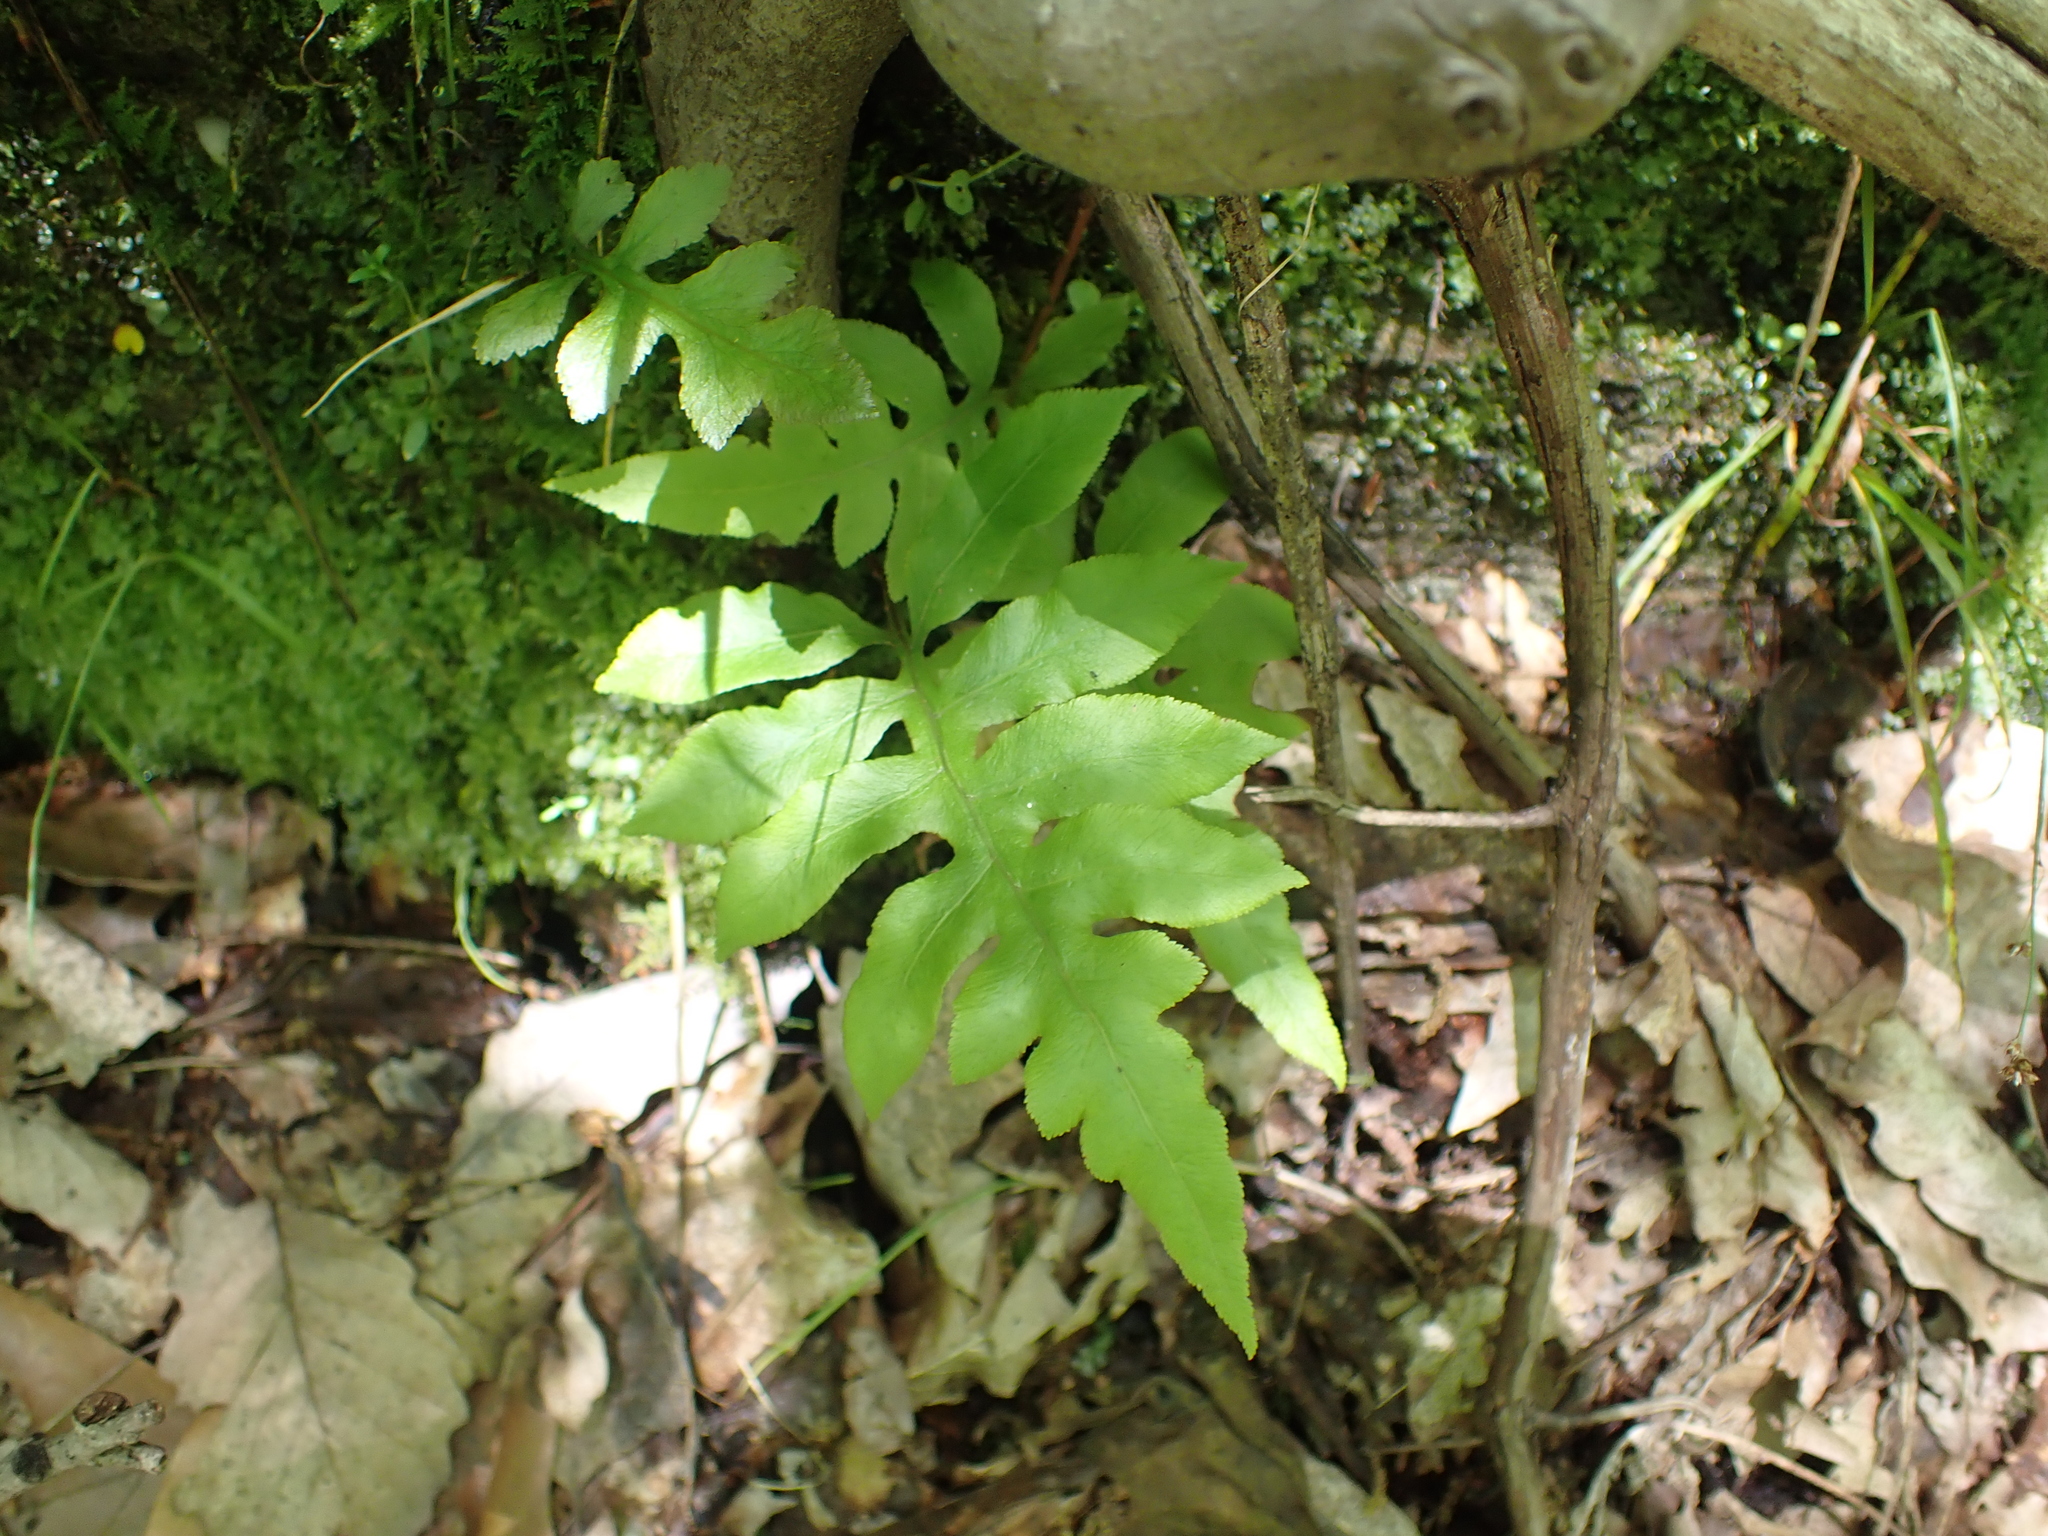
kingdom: Plantae
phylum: Tracheophyta
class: Polypodiopsida
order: Polypodiales
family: Blechnaceae
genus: Lorinseria
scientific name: Lorinseria areolata
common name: Dwarf chain fern
